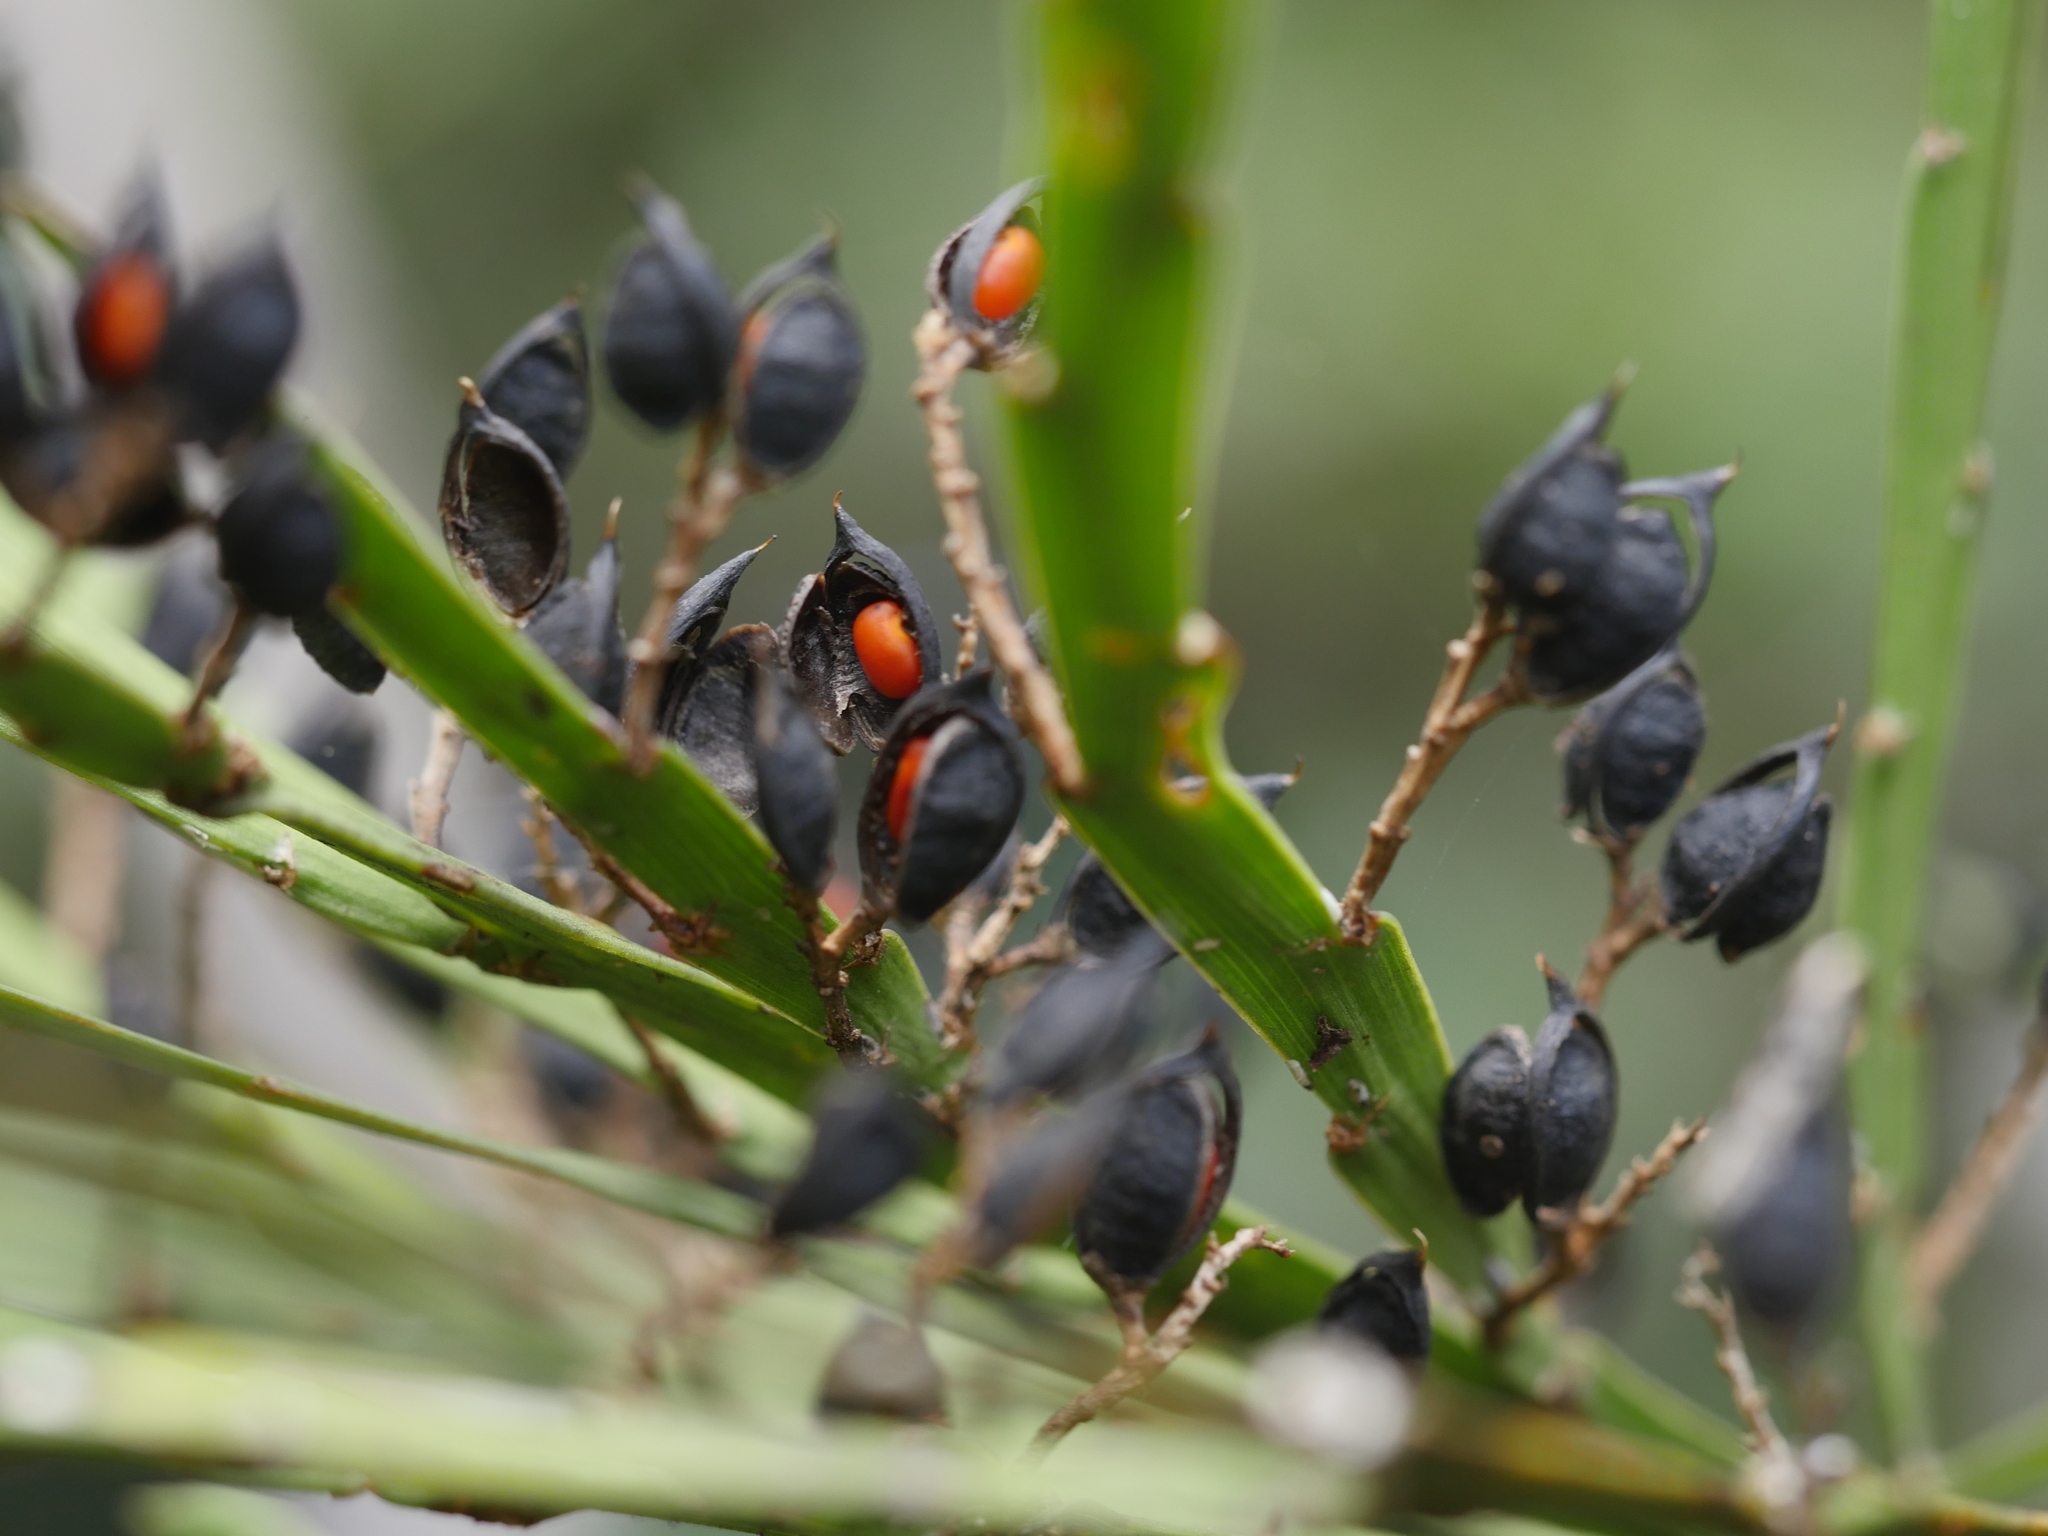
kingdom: Plantae
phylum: Tracheophyta
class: Magnoliopsida
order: Fabales
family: Fabaceae
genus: Carmichaelia
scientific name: Carmichaelia australis
